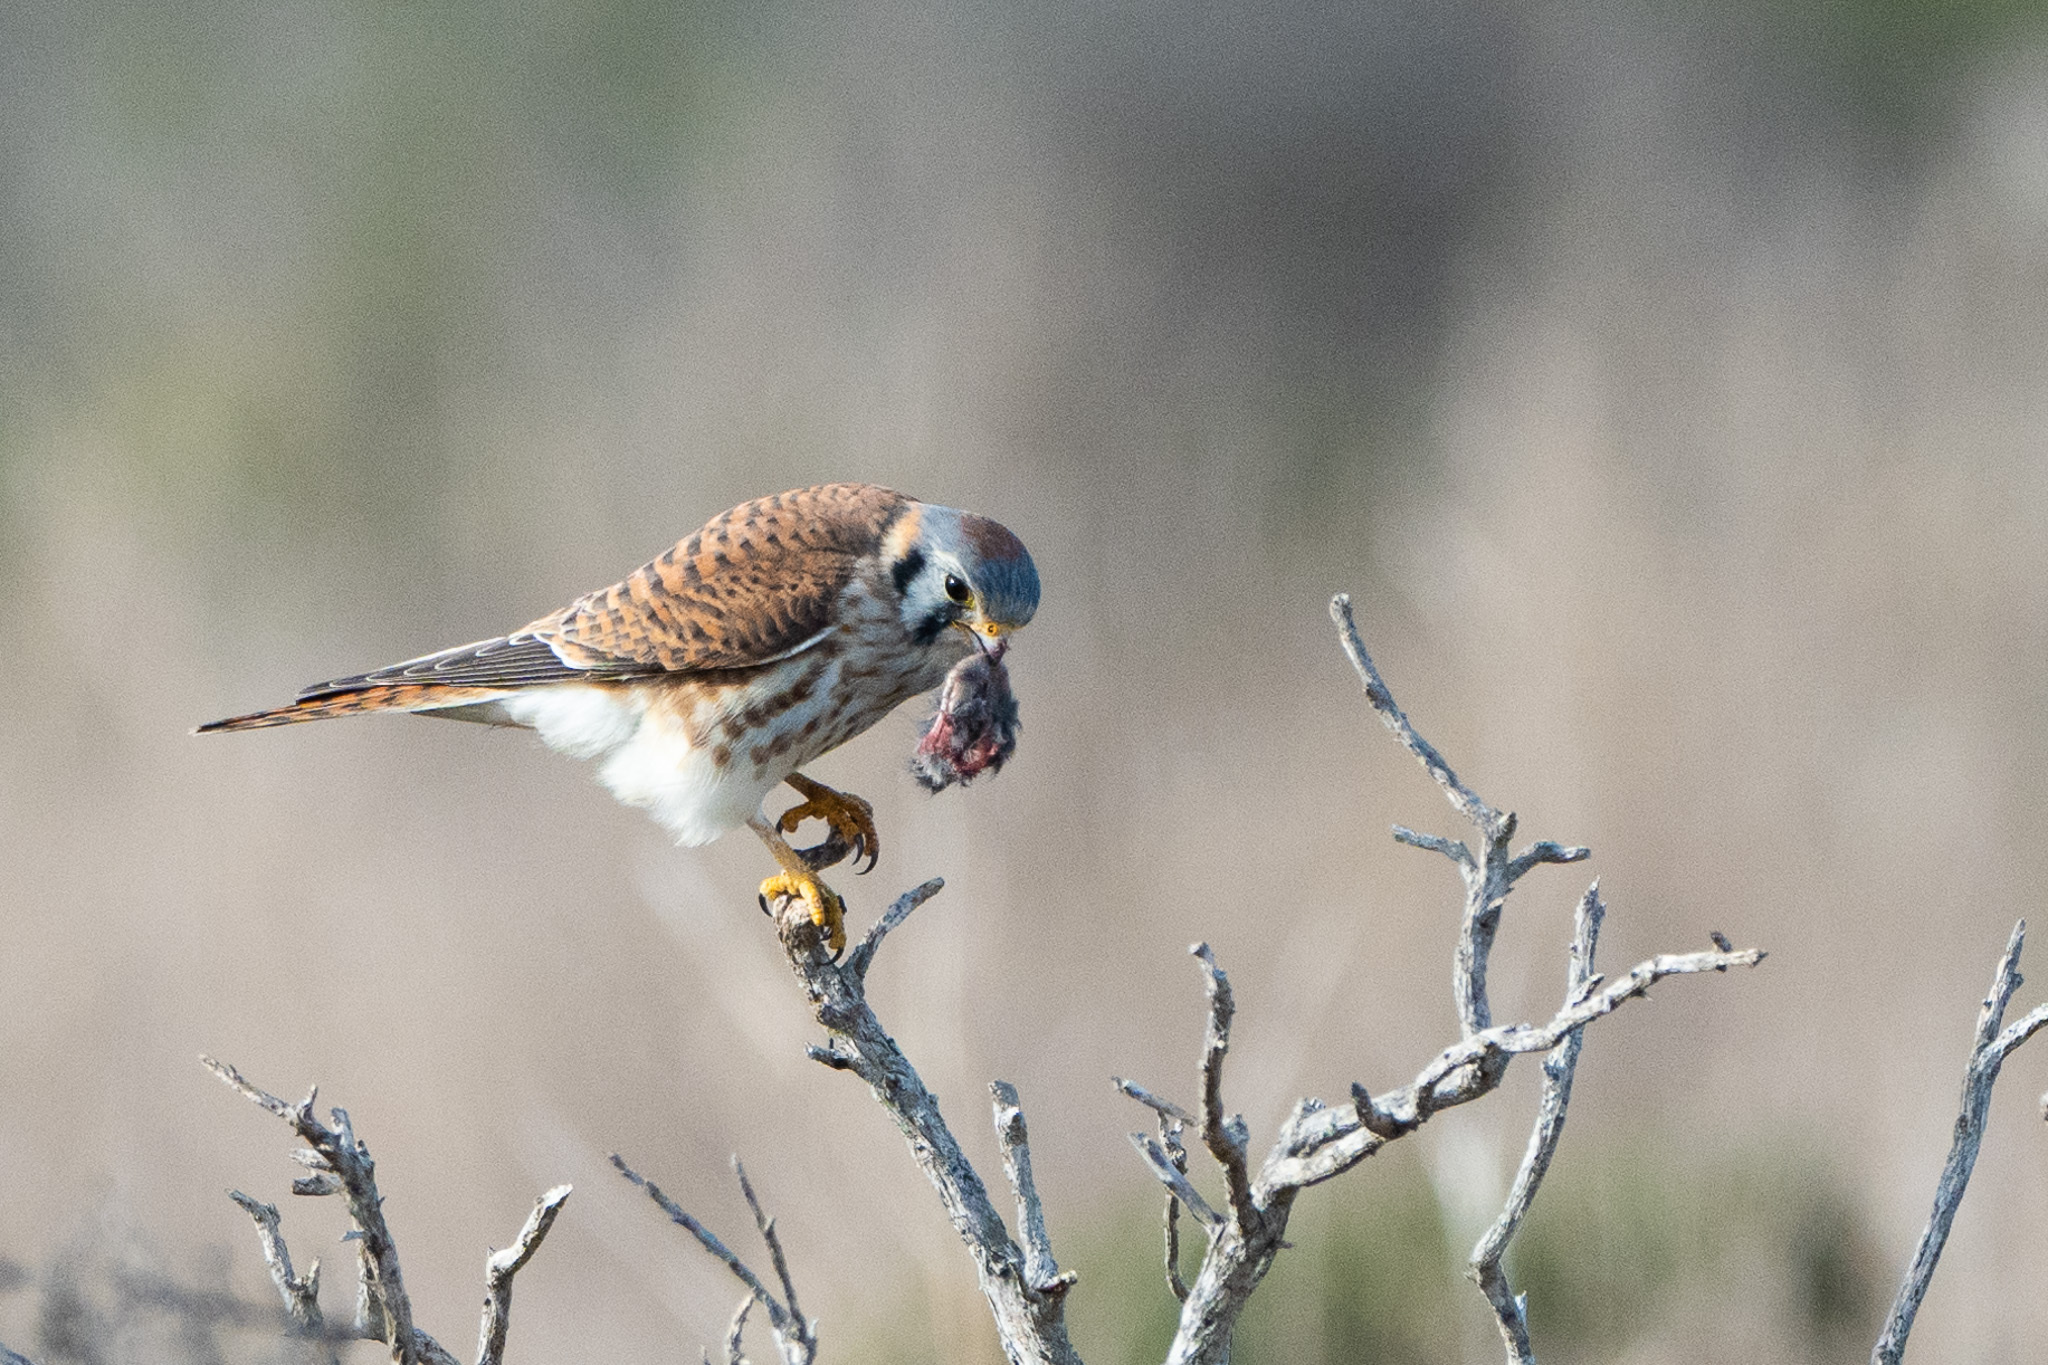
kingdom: Animalia
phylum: Chordata
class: Aves
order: Falconiformes
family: Falconidae
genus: Falco
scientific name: Falco sparverius
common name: American kestrel
